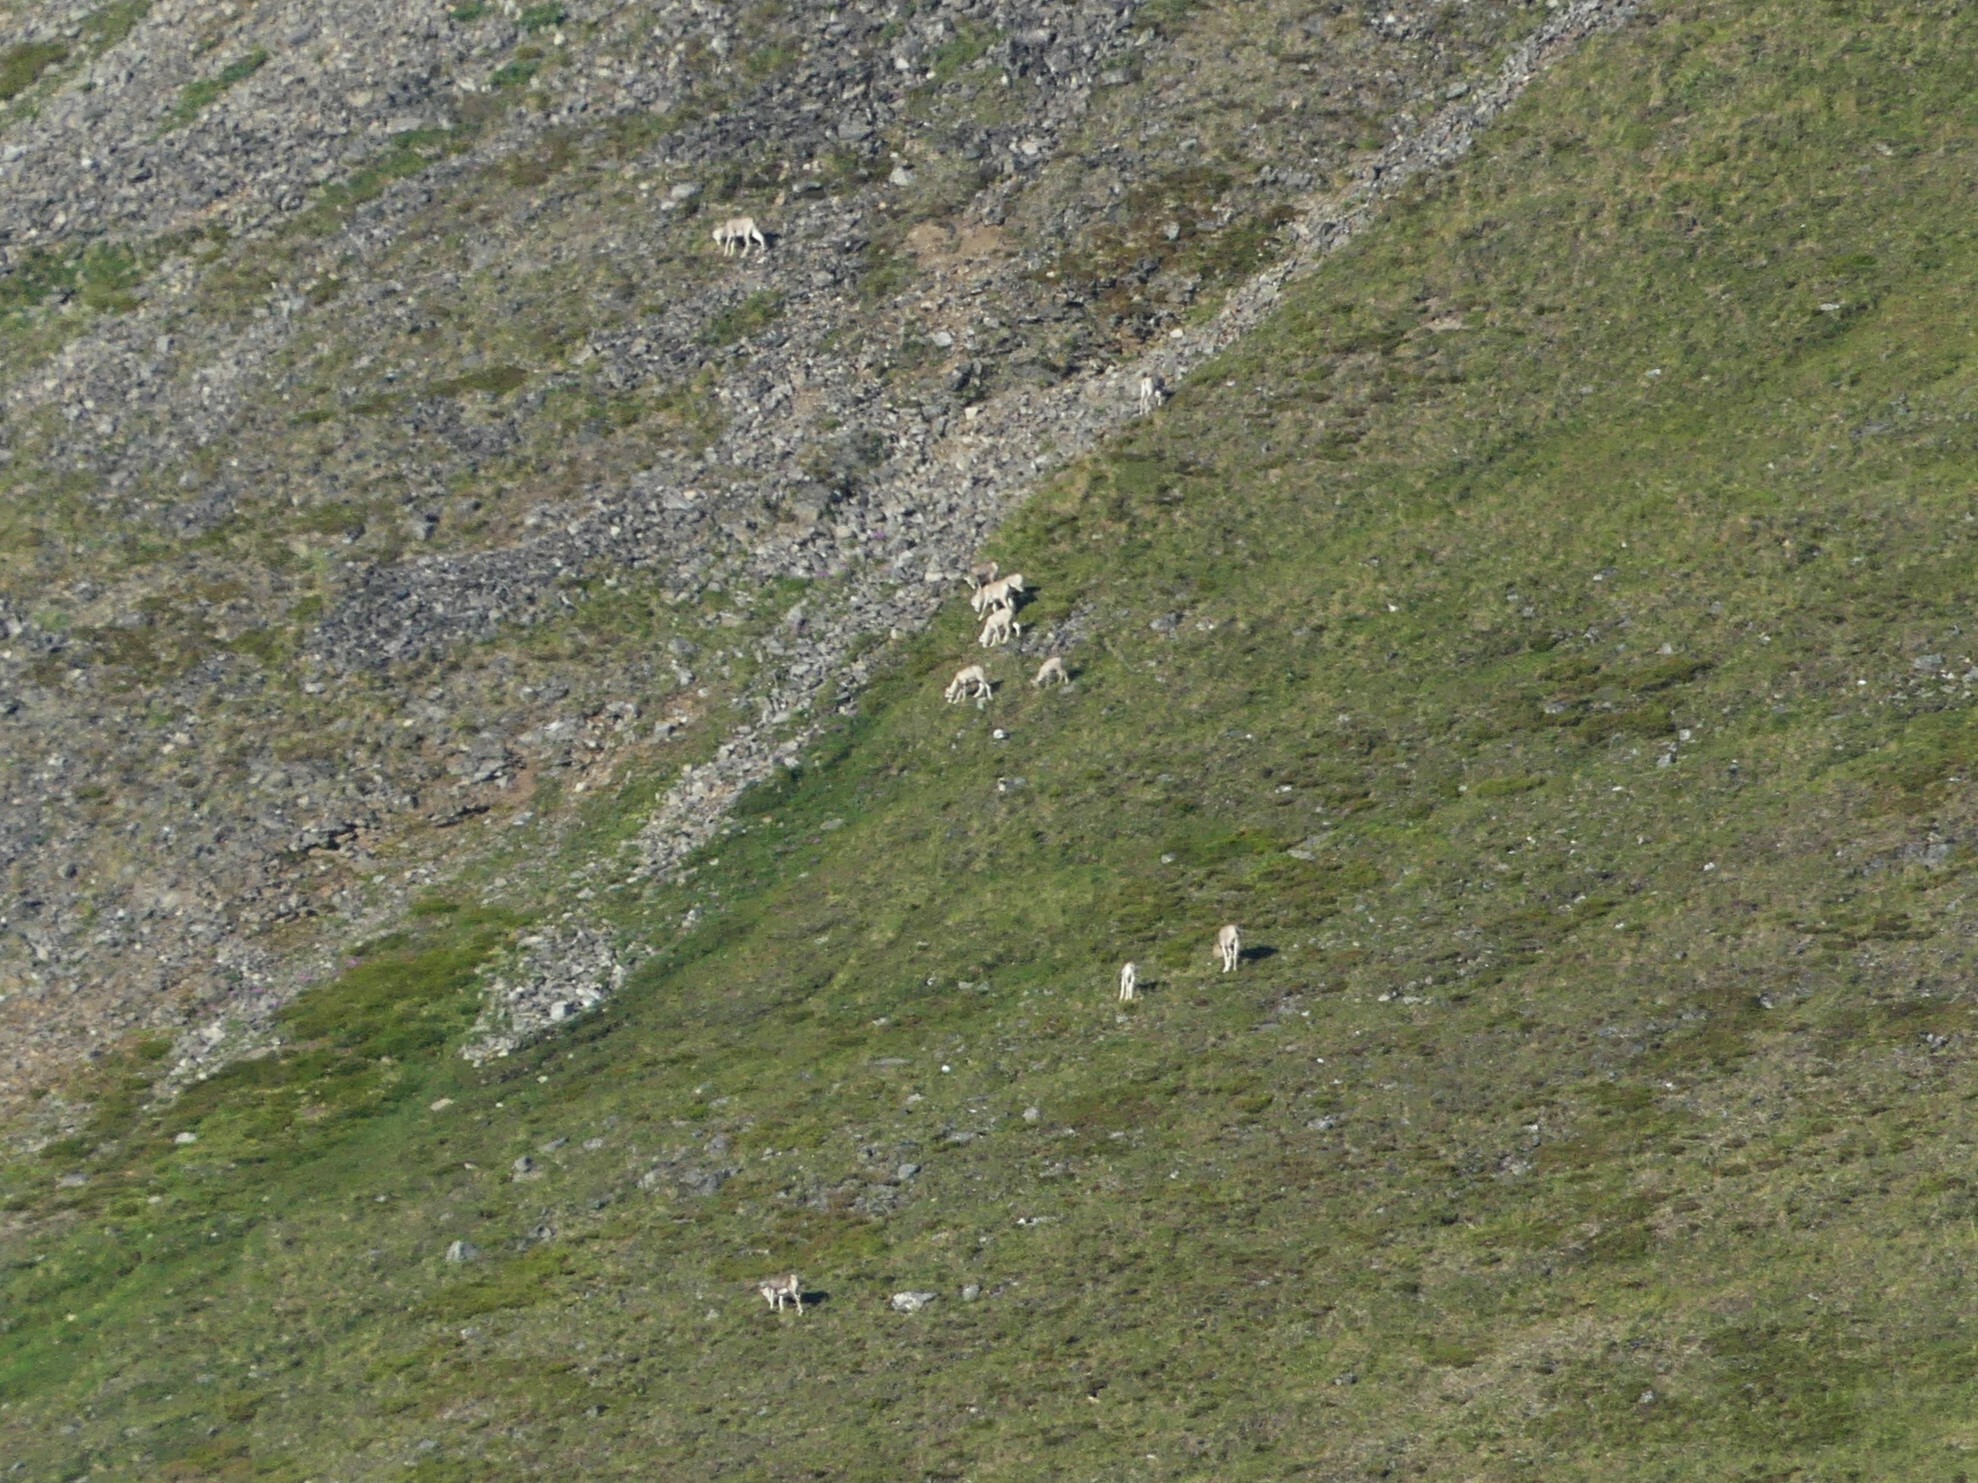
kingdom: Animalia
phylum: Chordata
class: Mammalia
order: Artiodactyla
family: Bovidae
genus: Ovis
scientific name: Ovis dalli
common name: Dall's sheep
